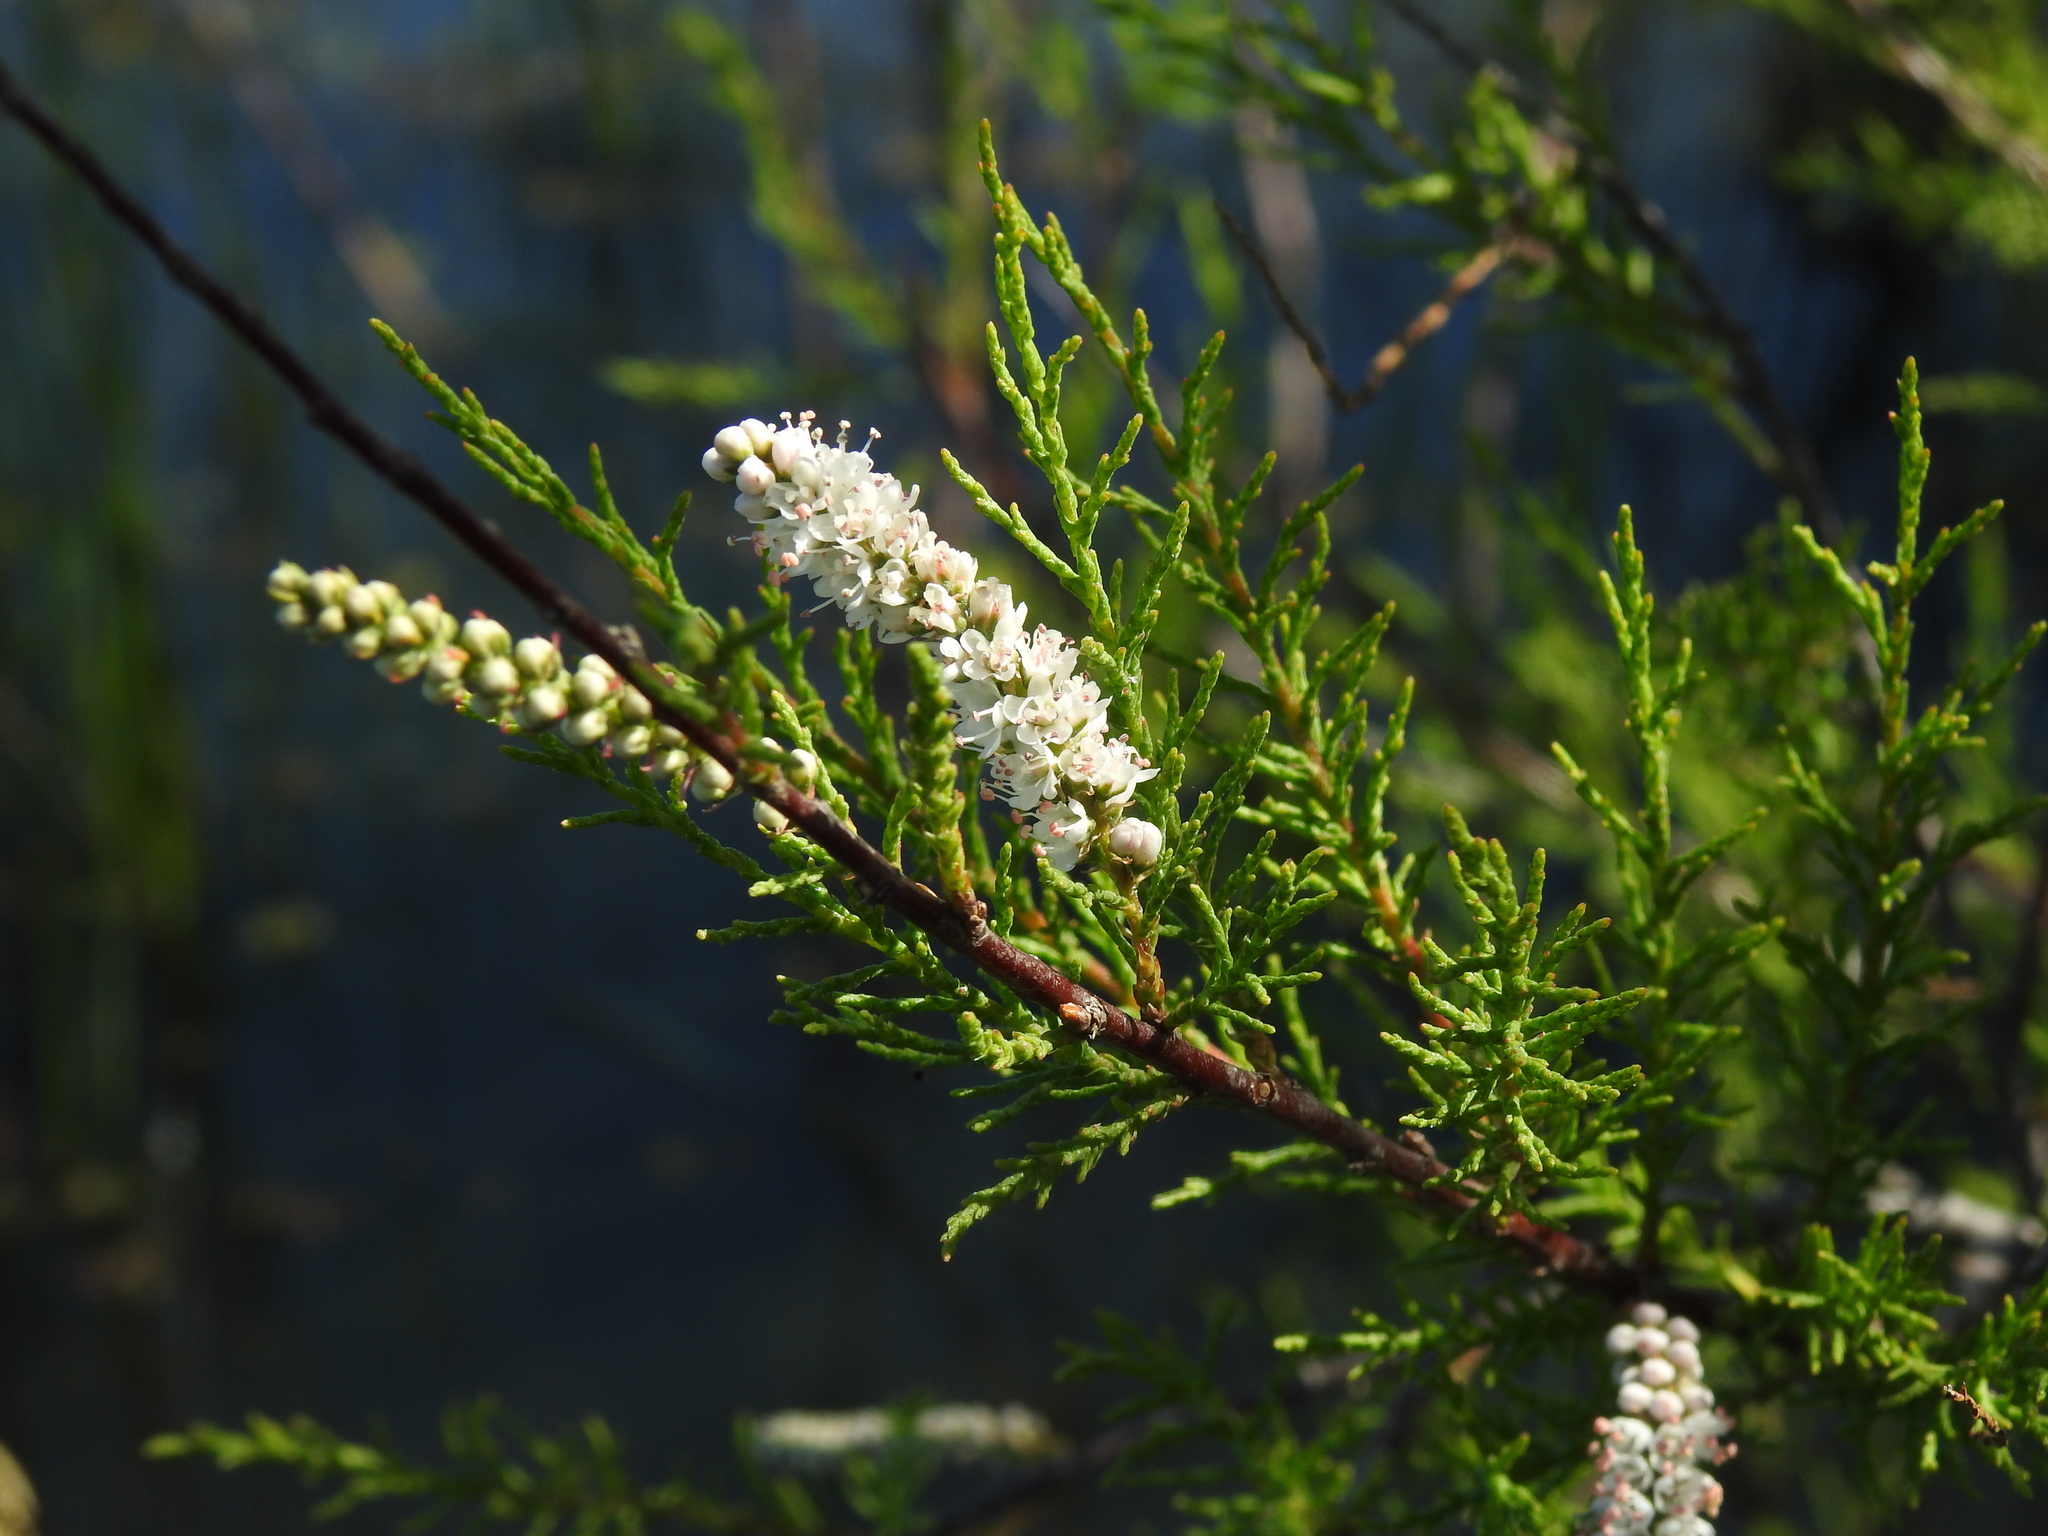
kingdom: Plantae
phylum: Tracheophyta
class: Magnoliopsida
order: Caryophyllales
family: Tamaricaceae
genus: Tamarix
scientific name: Tamarix africana
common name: African tamarisk
